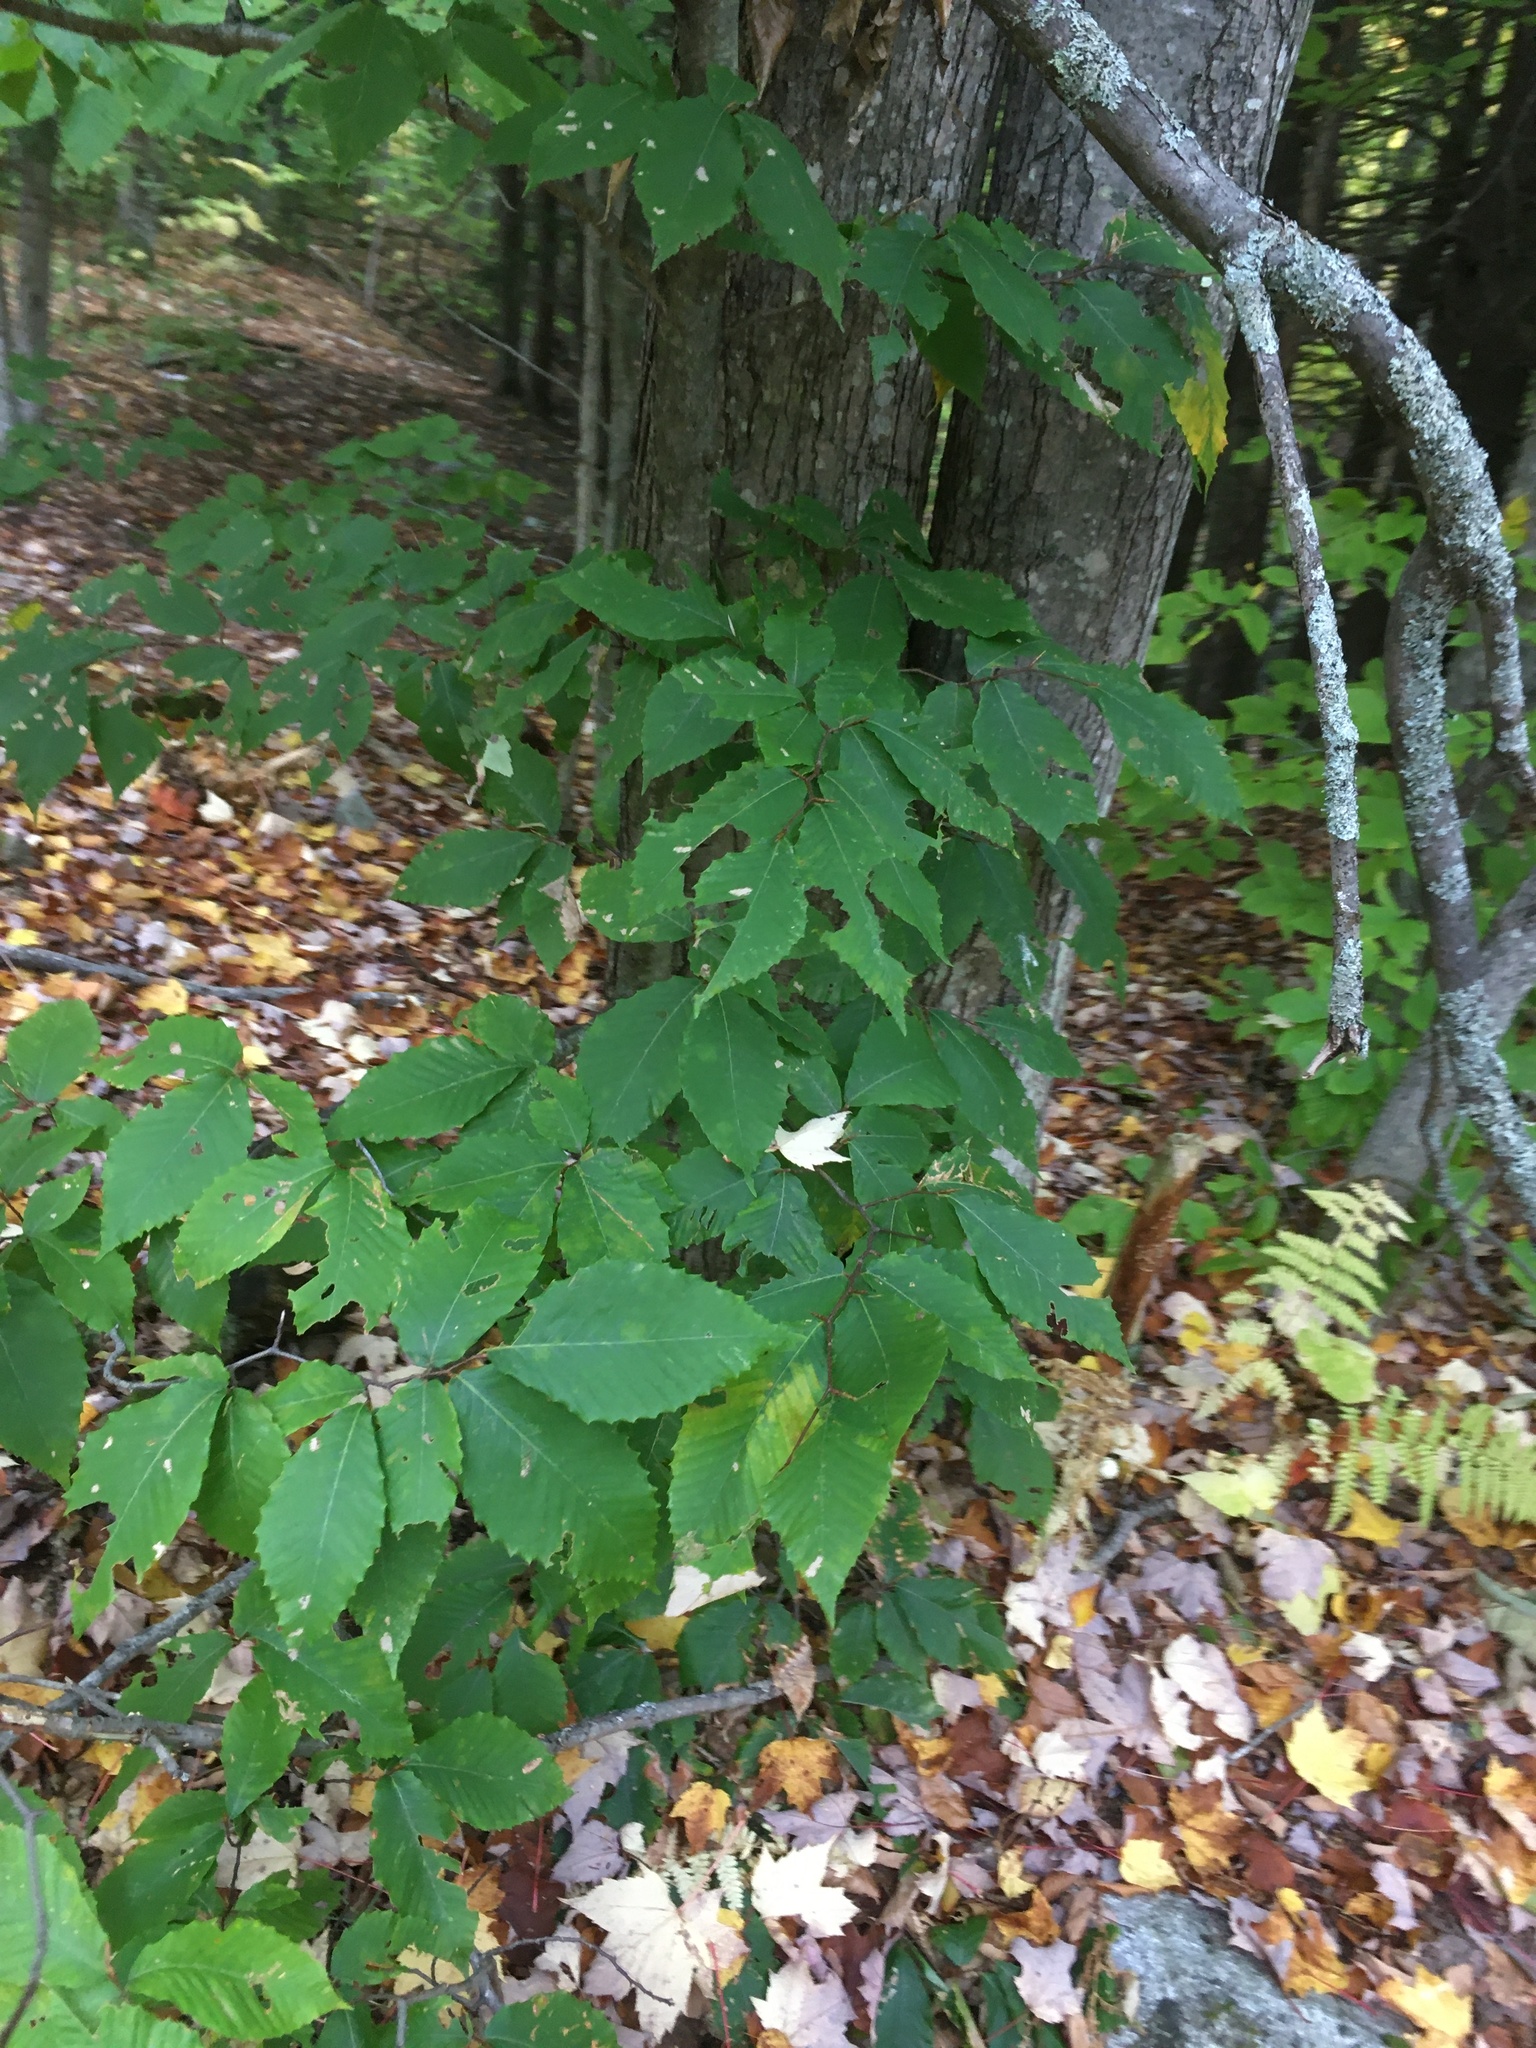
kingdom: Plantae
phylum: Tracheophyta
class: Magnoliopsida
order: Fagales
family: Fagaceae
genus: Fagus
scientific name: Fagus grandifolia
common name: American beech
